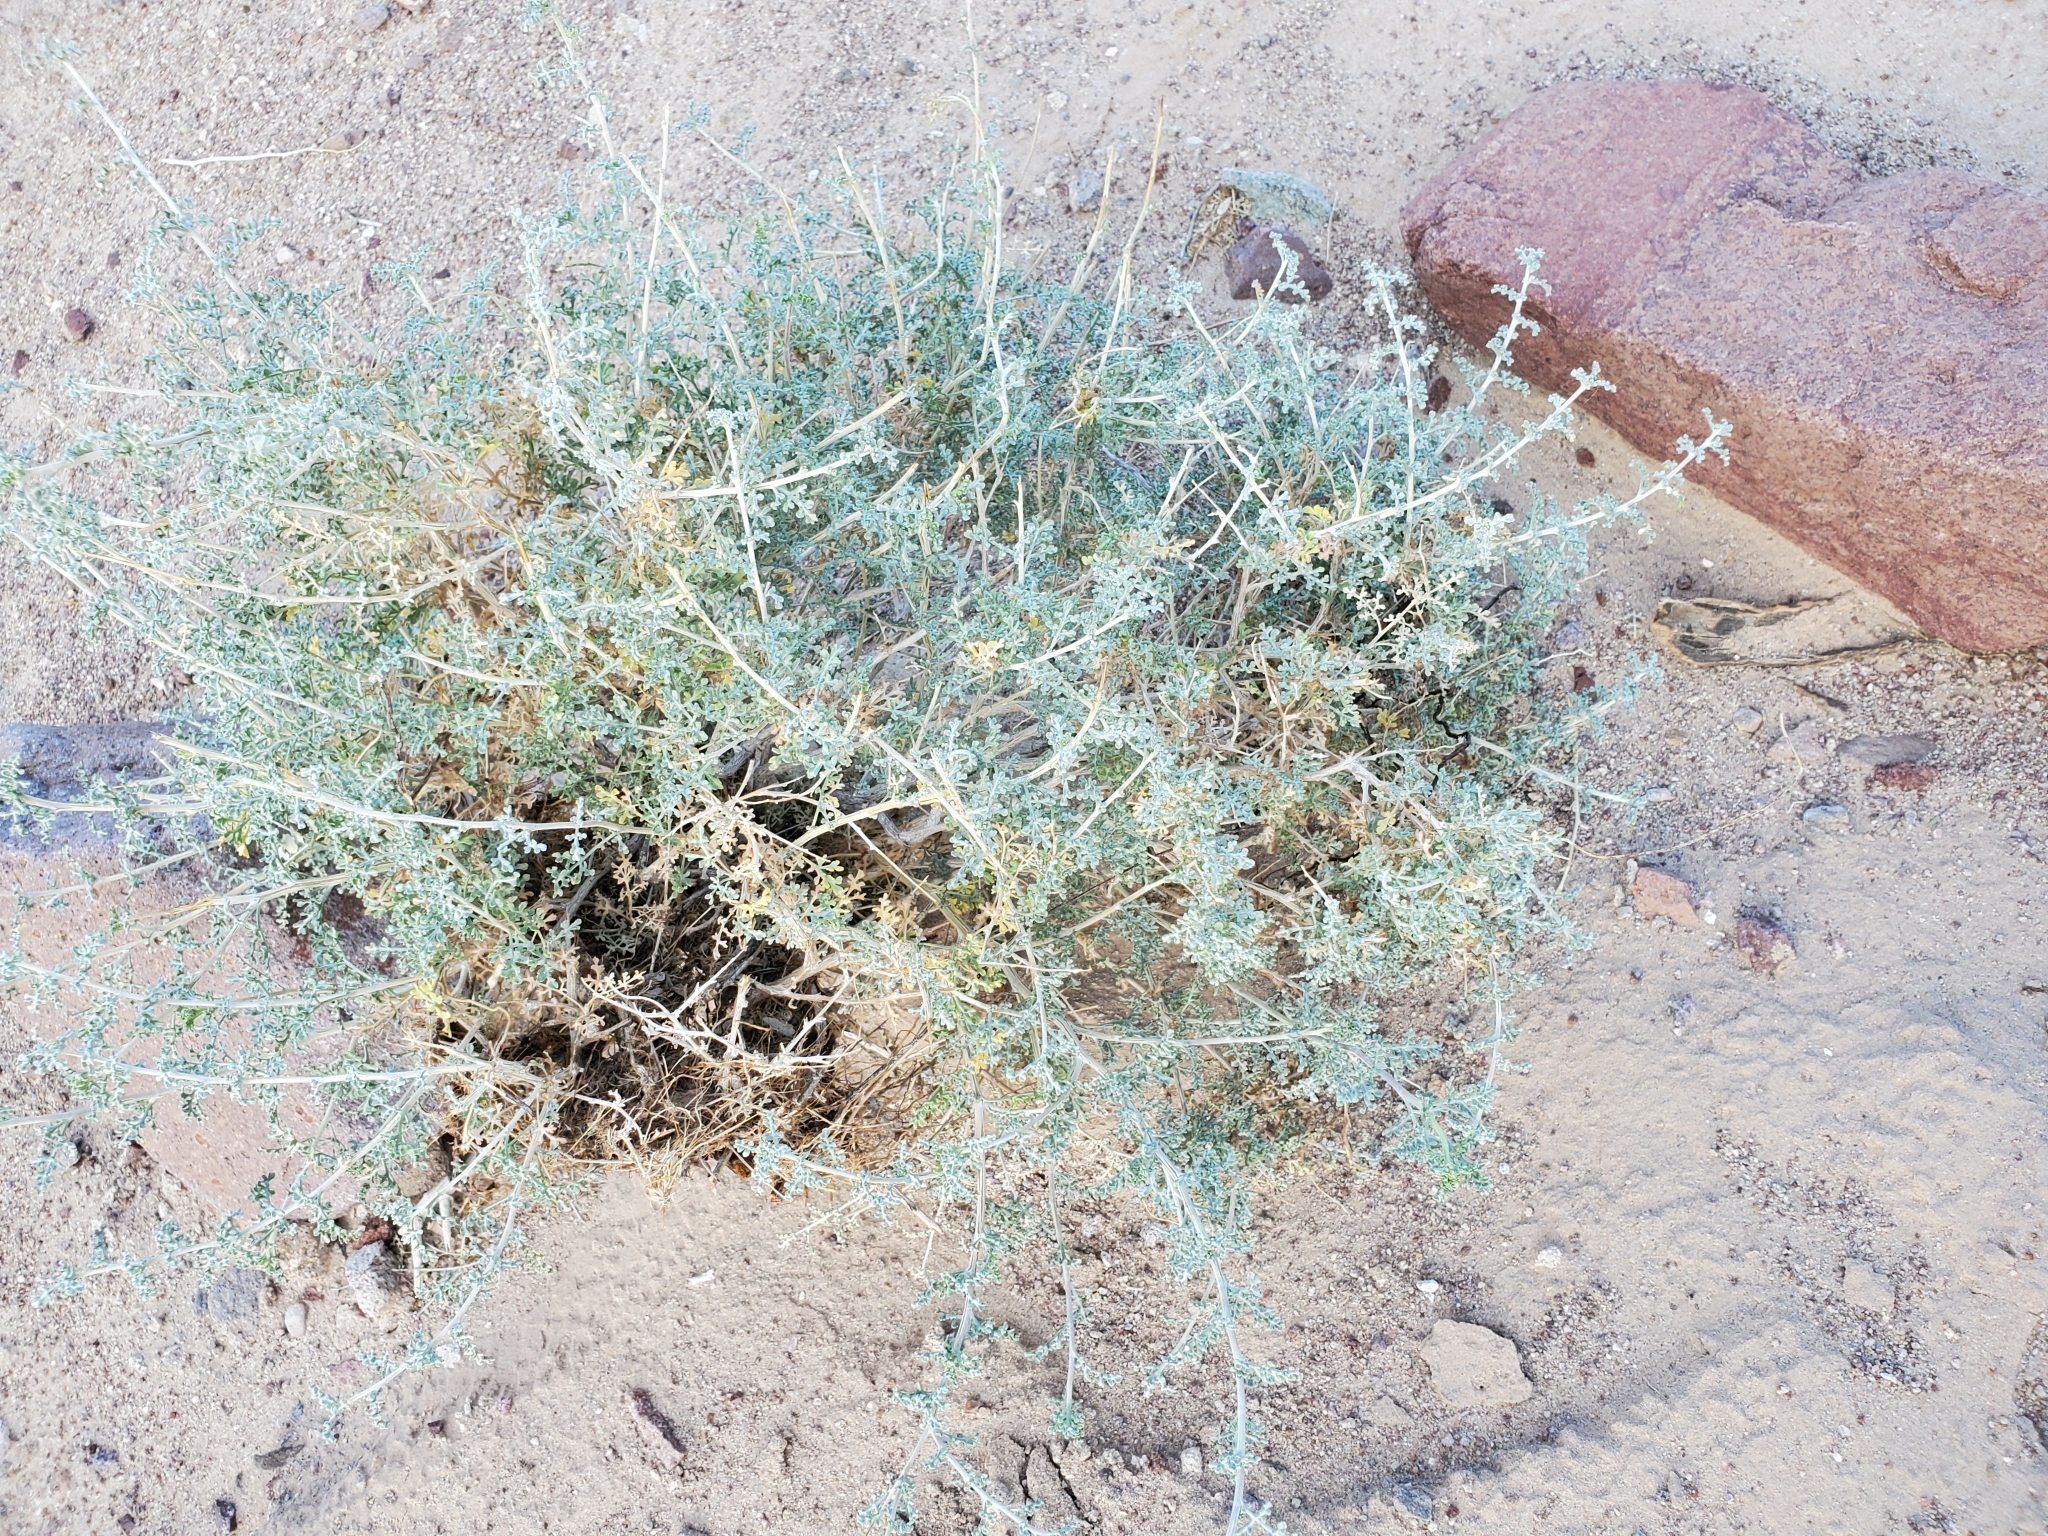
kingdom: Plantae
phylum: Tracheophyta
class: Magnoliopsida
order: Asterales
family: Asteraceae
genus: Ambrosia
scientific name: Ambrosia dumosa
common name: Bur-sage
